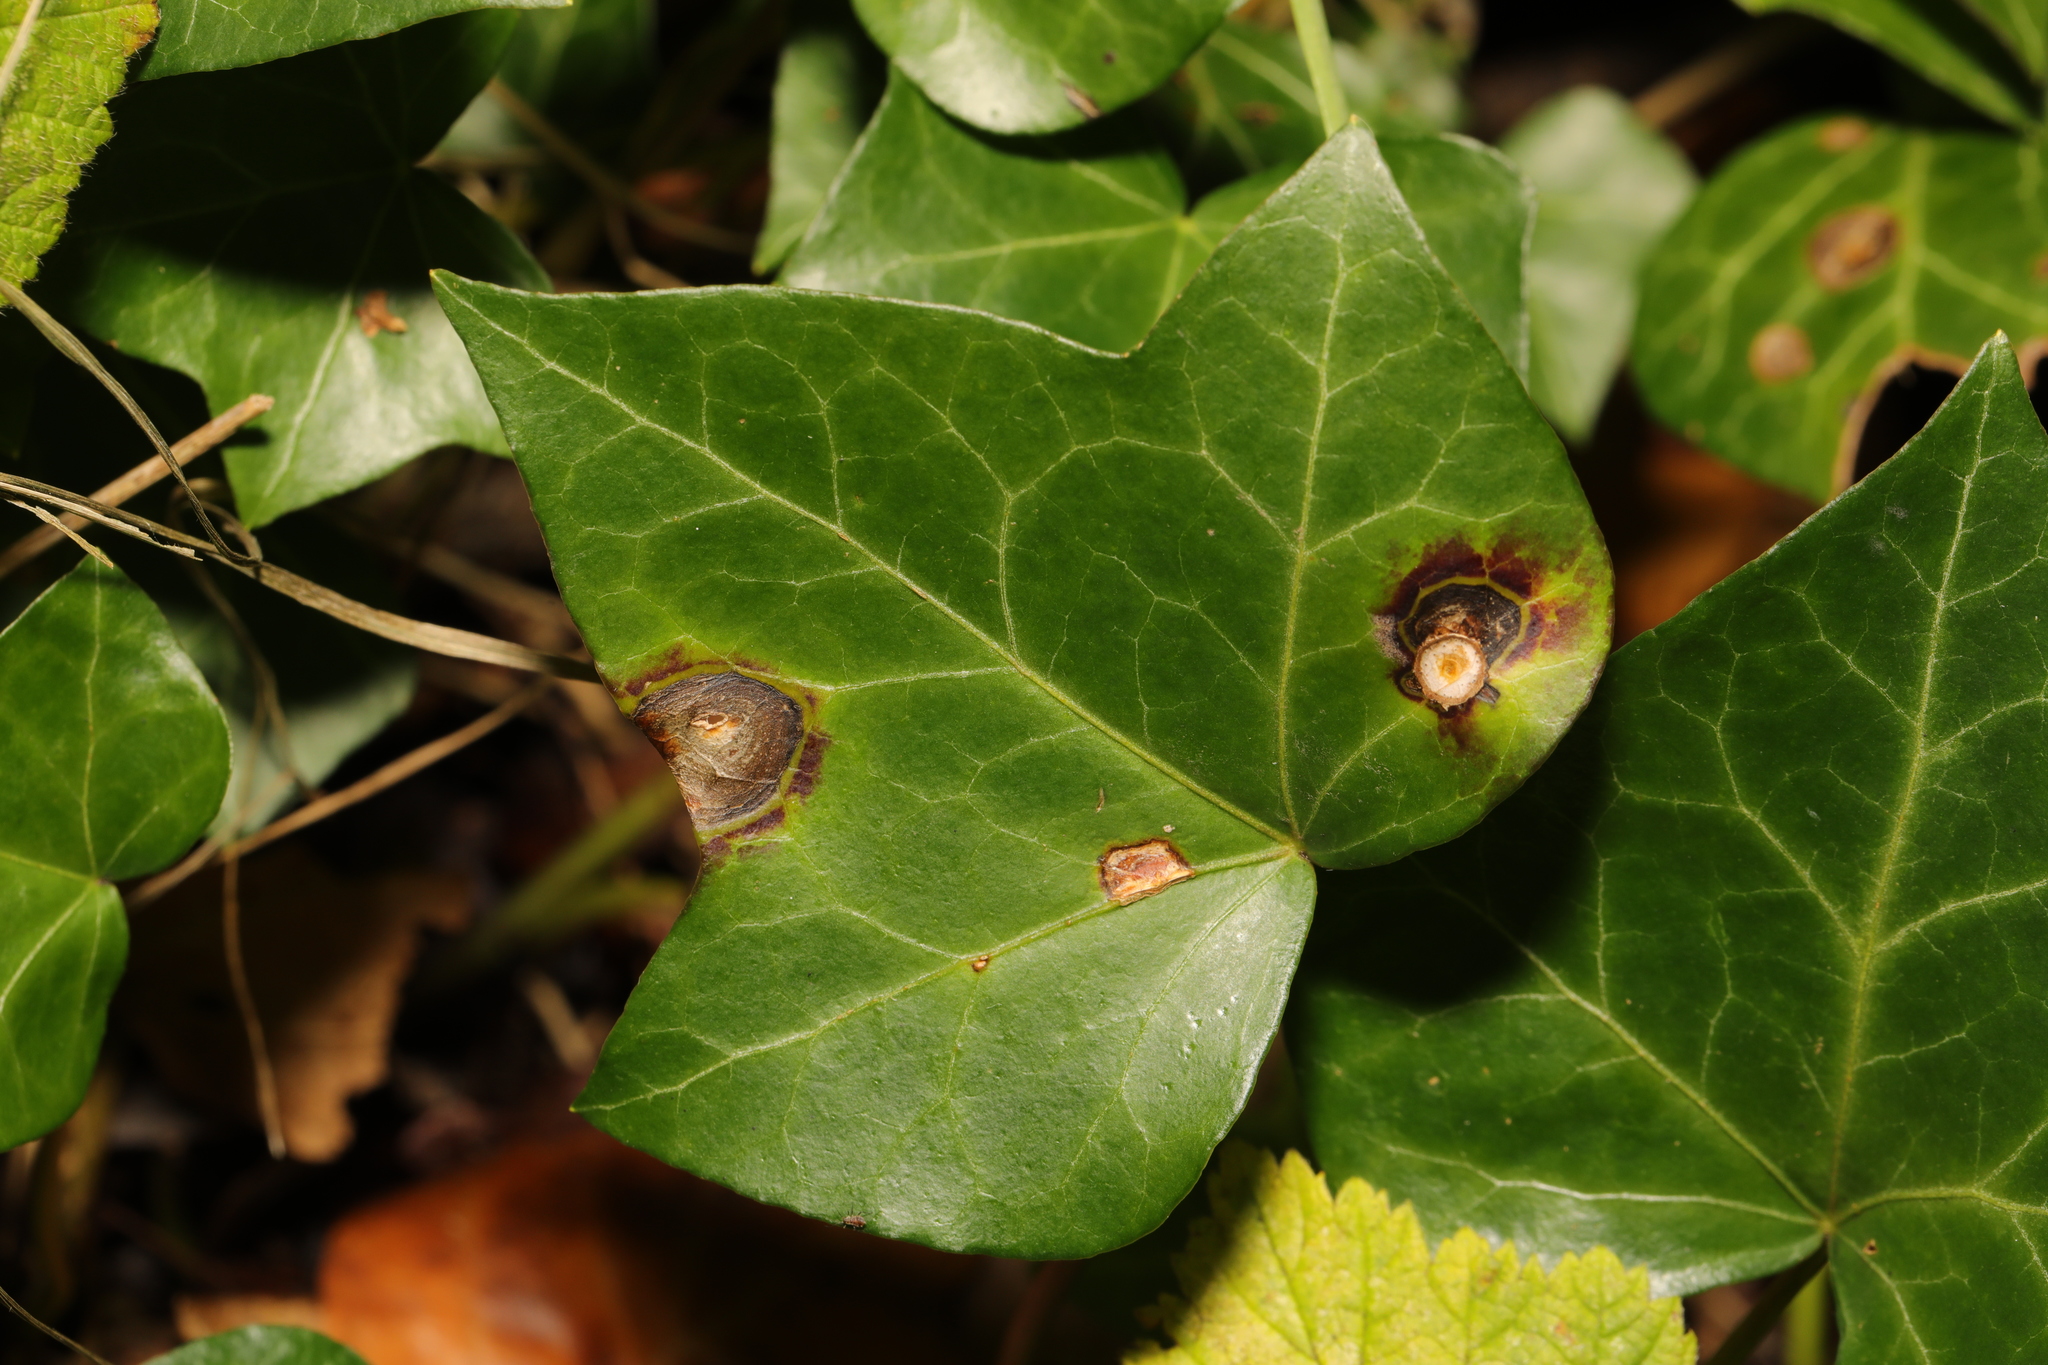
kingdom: Fungi
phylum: Ascomycota
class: Dothideomycetes
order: Pleosporales
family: Didymellaceae
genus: Boeremia
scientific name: Boeremia hedericola
